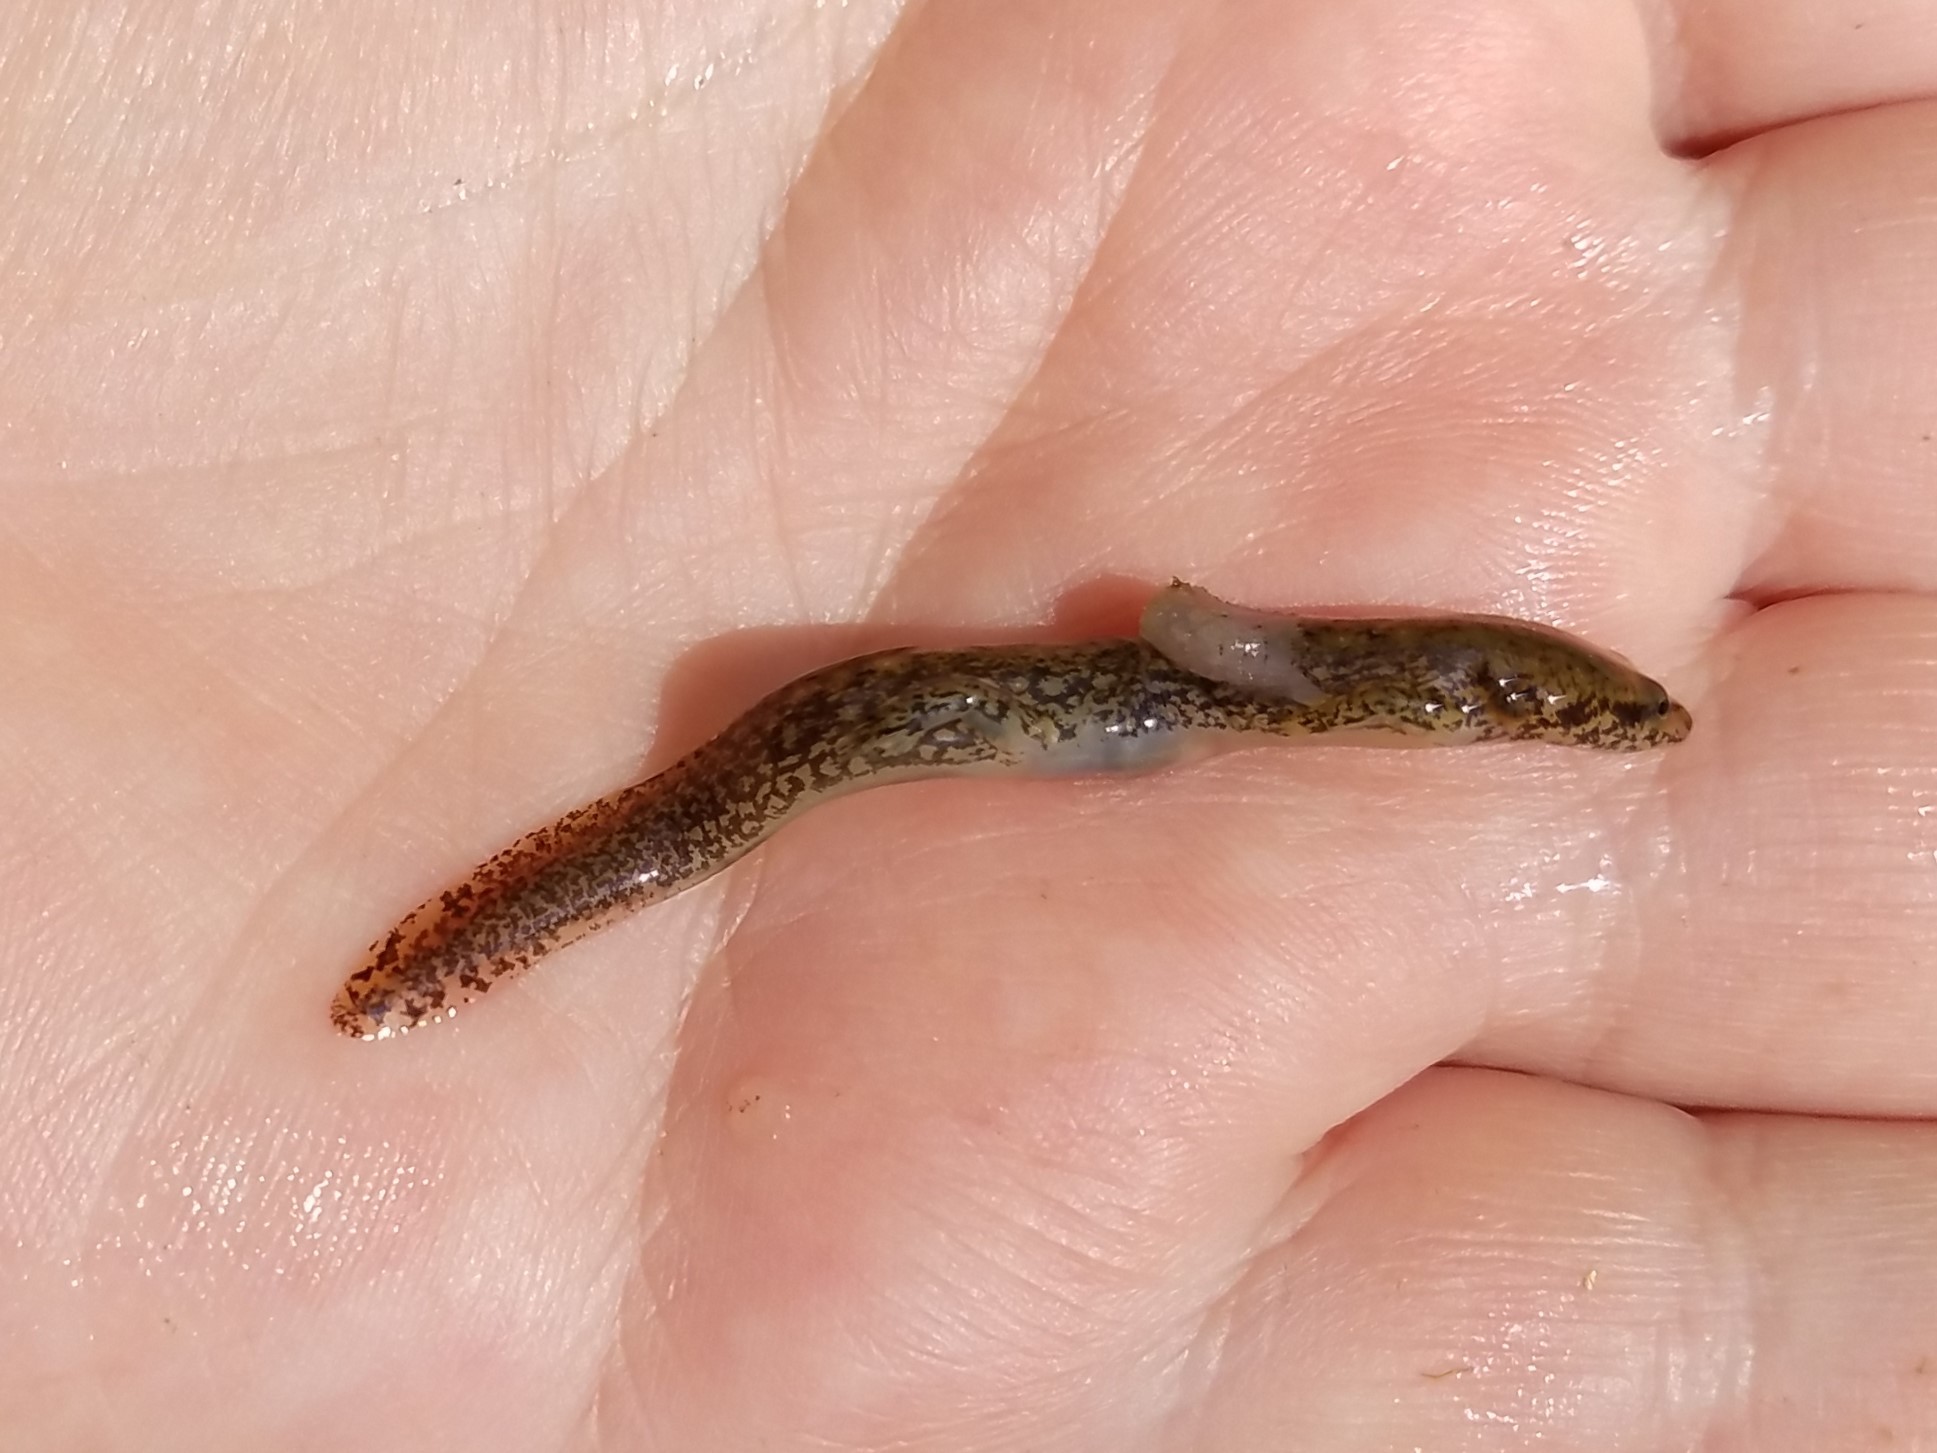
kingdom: Animalia
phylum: Chordata
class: Amphibia
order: Caudata
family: Plethodontidae
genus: Eurycea
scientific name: Eurycea
